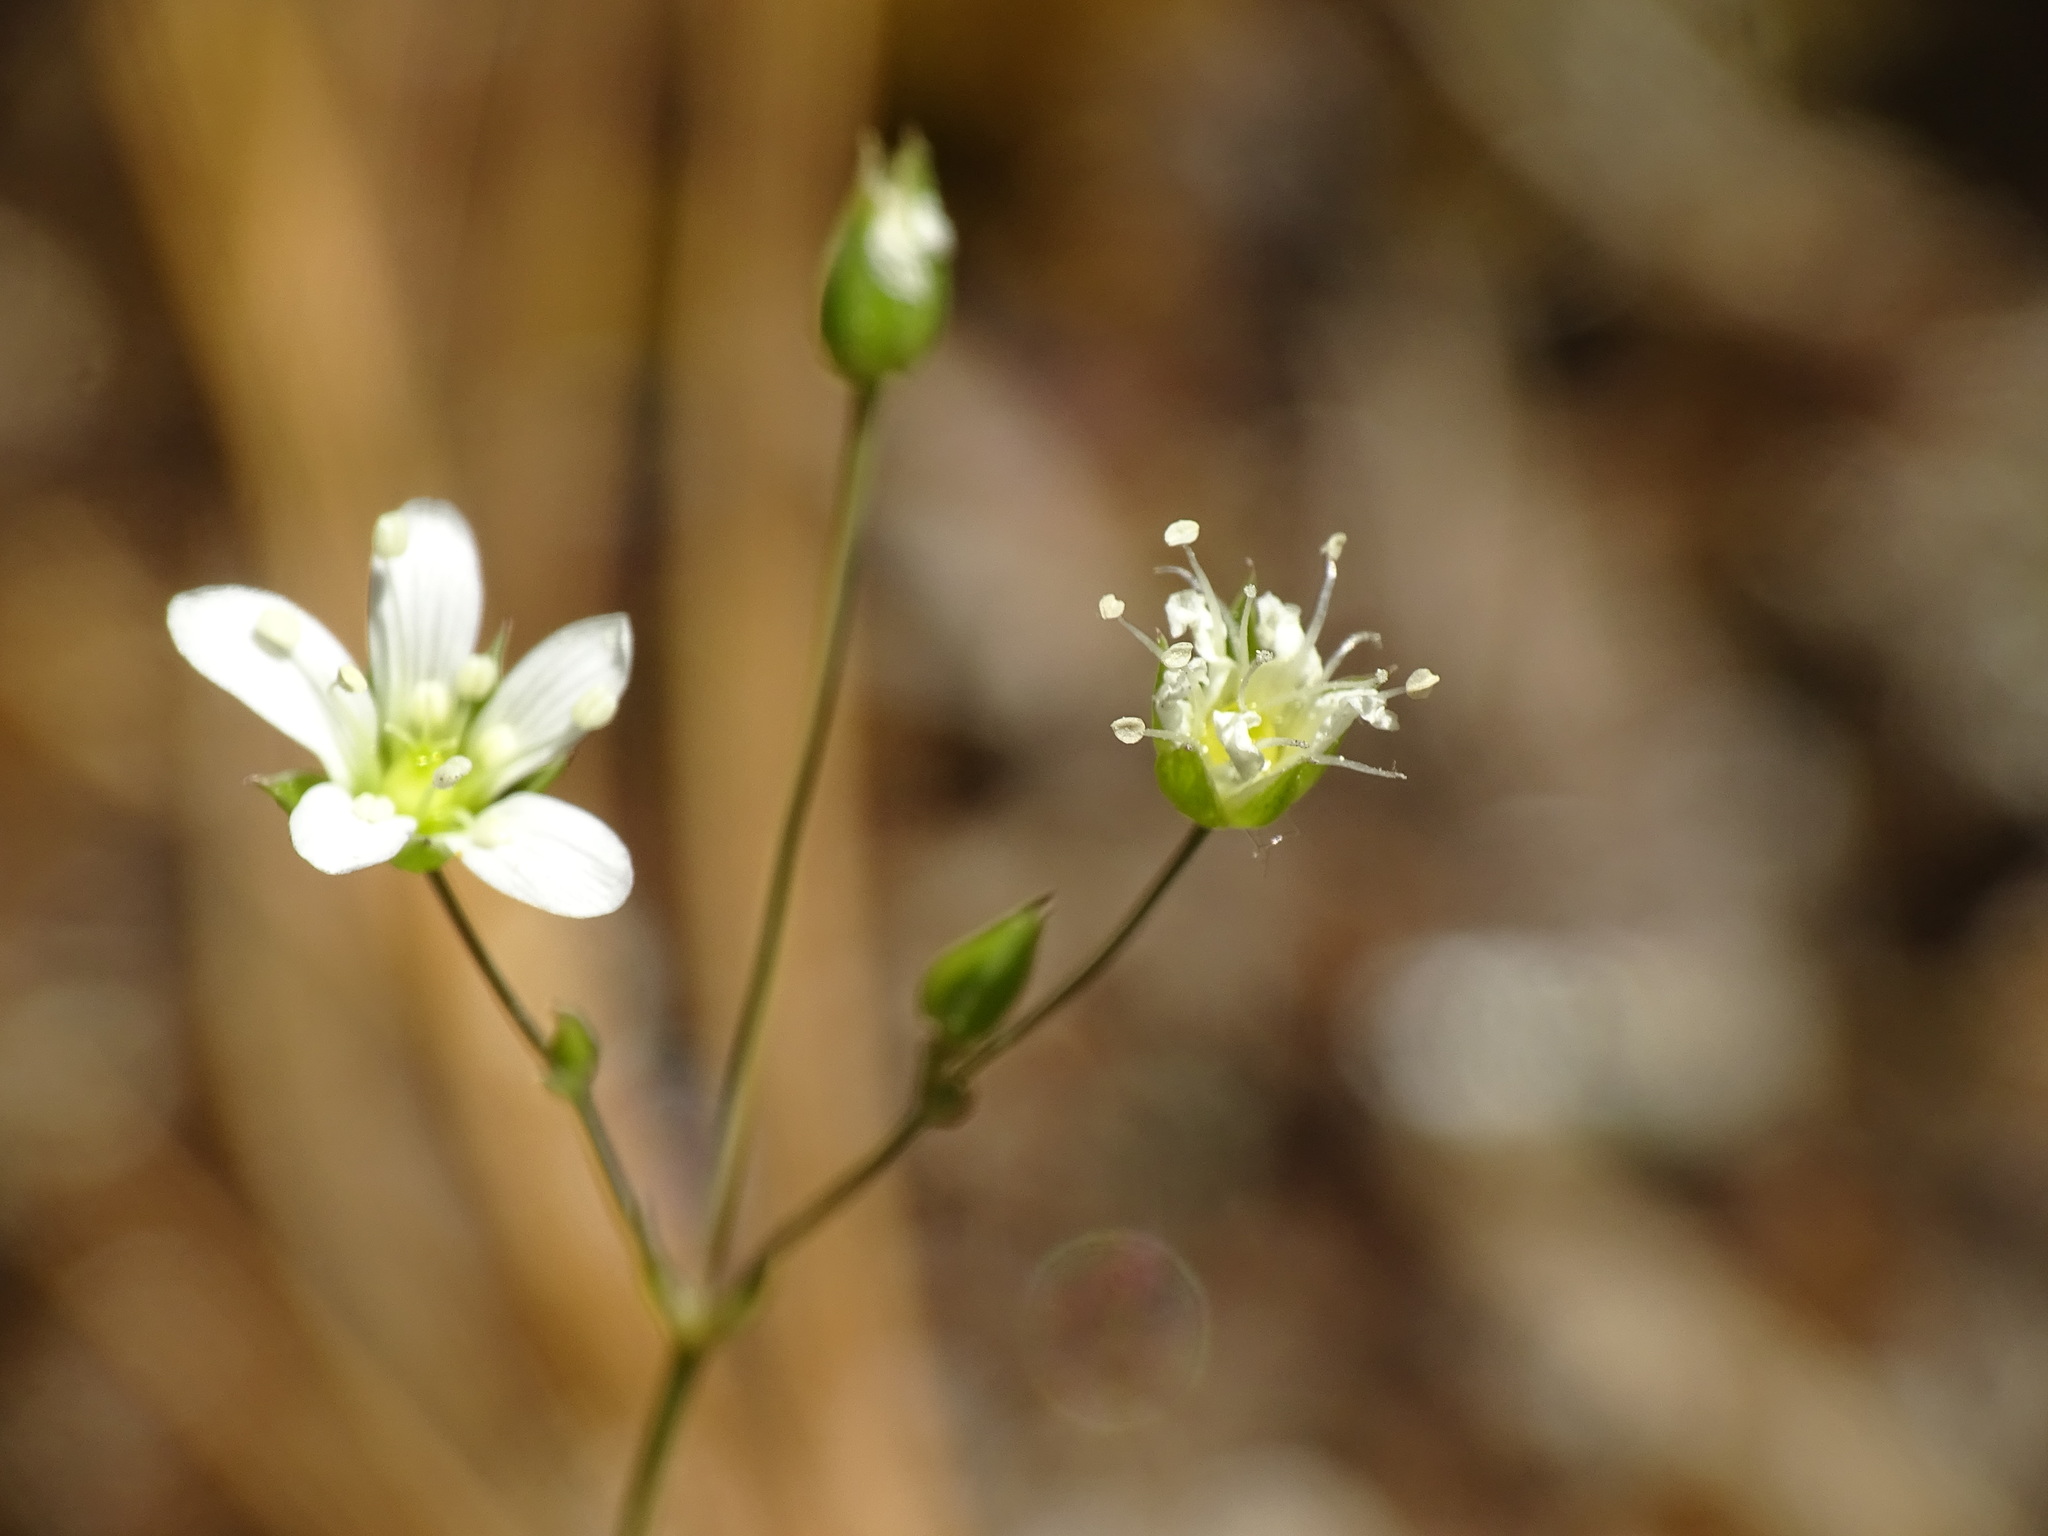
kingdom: Plantae
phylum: Tracheophyta
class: Magnoliopsida
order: Caryophyllales
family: Caryophyllaceae
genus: Sabulina
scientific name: Sabulina michauxii
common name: Michaux's stitchwort
